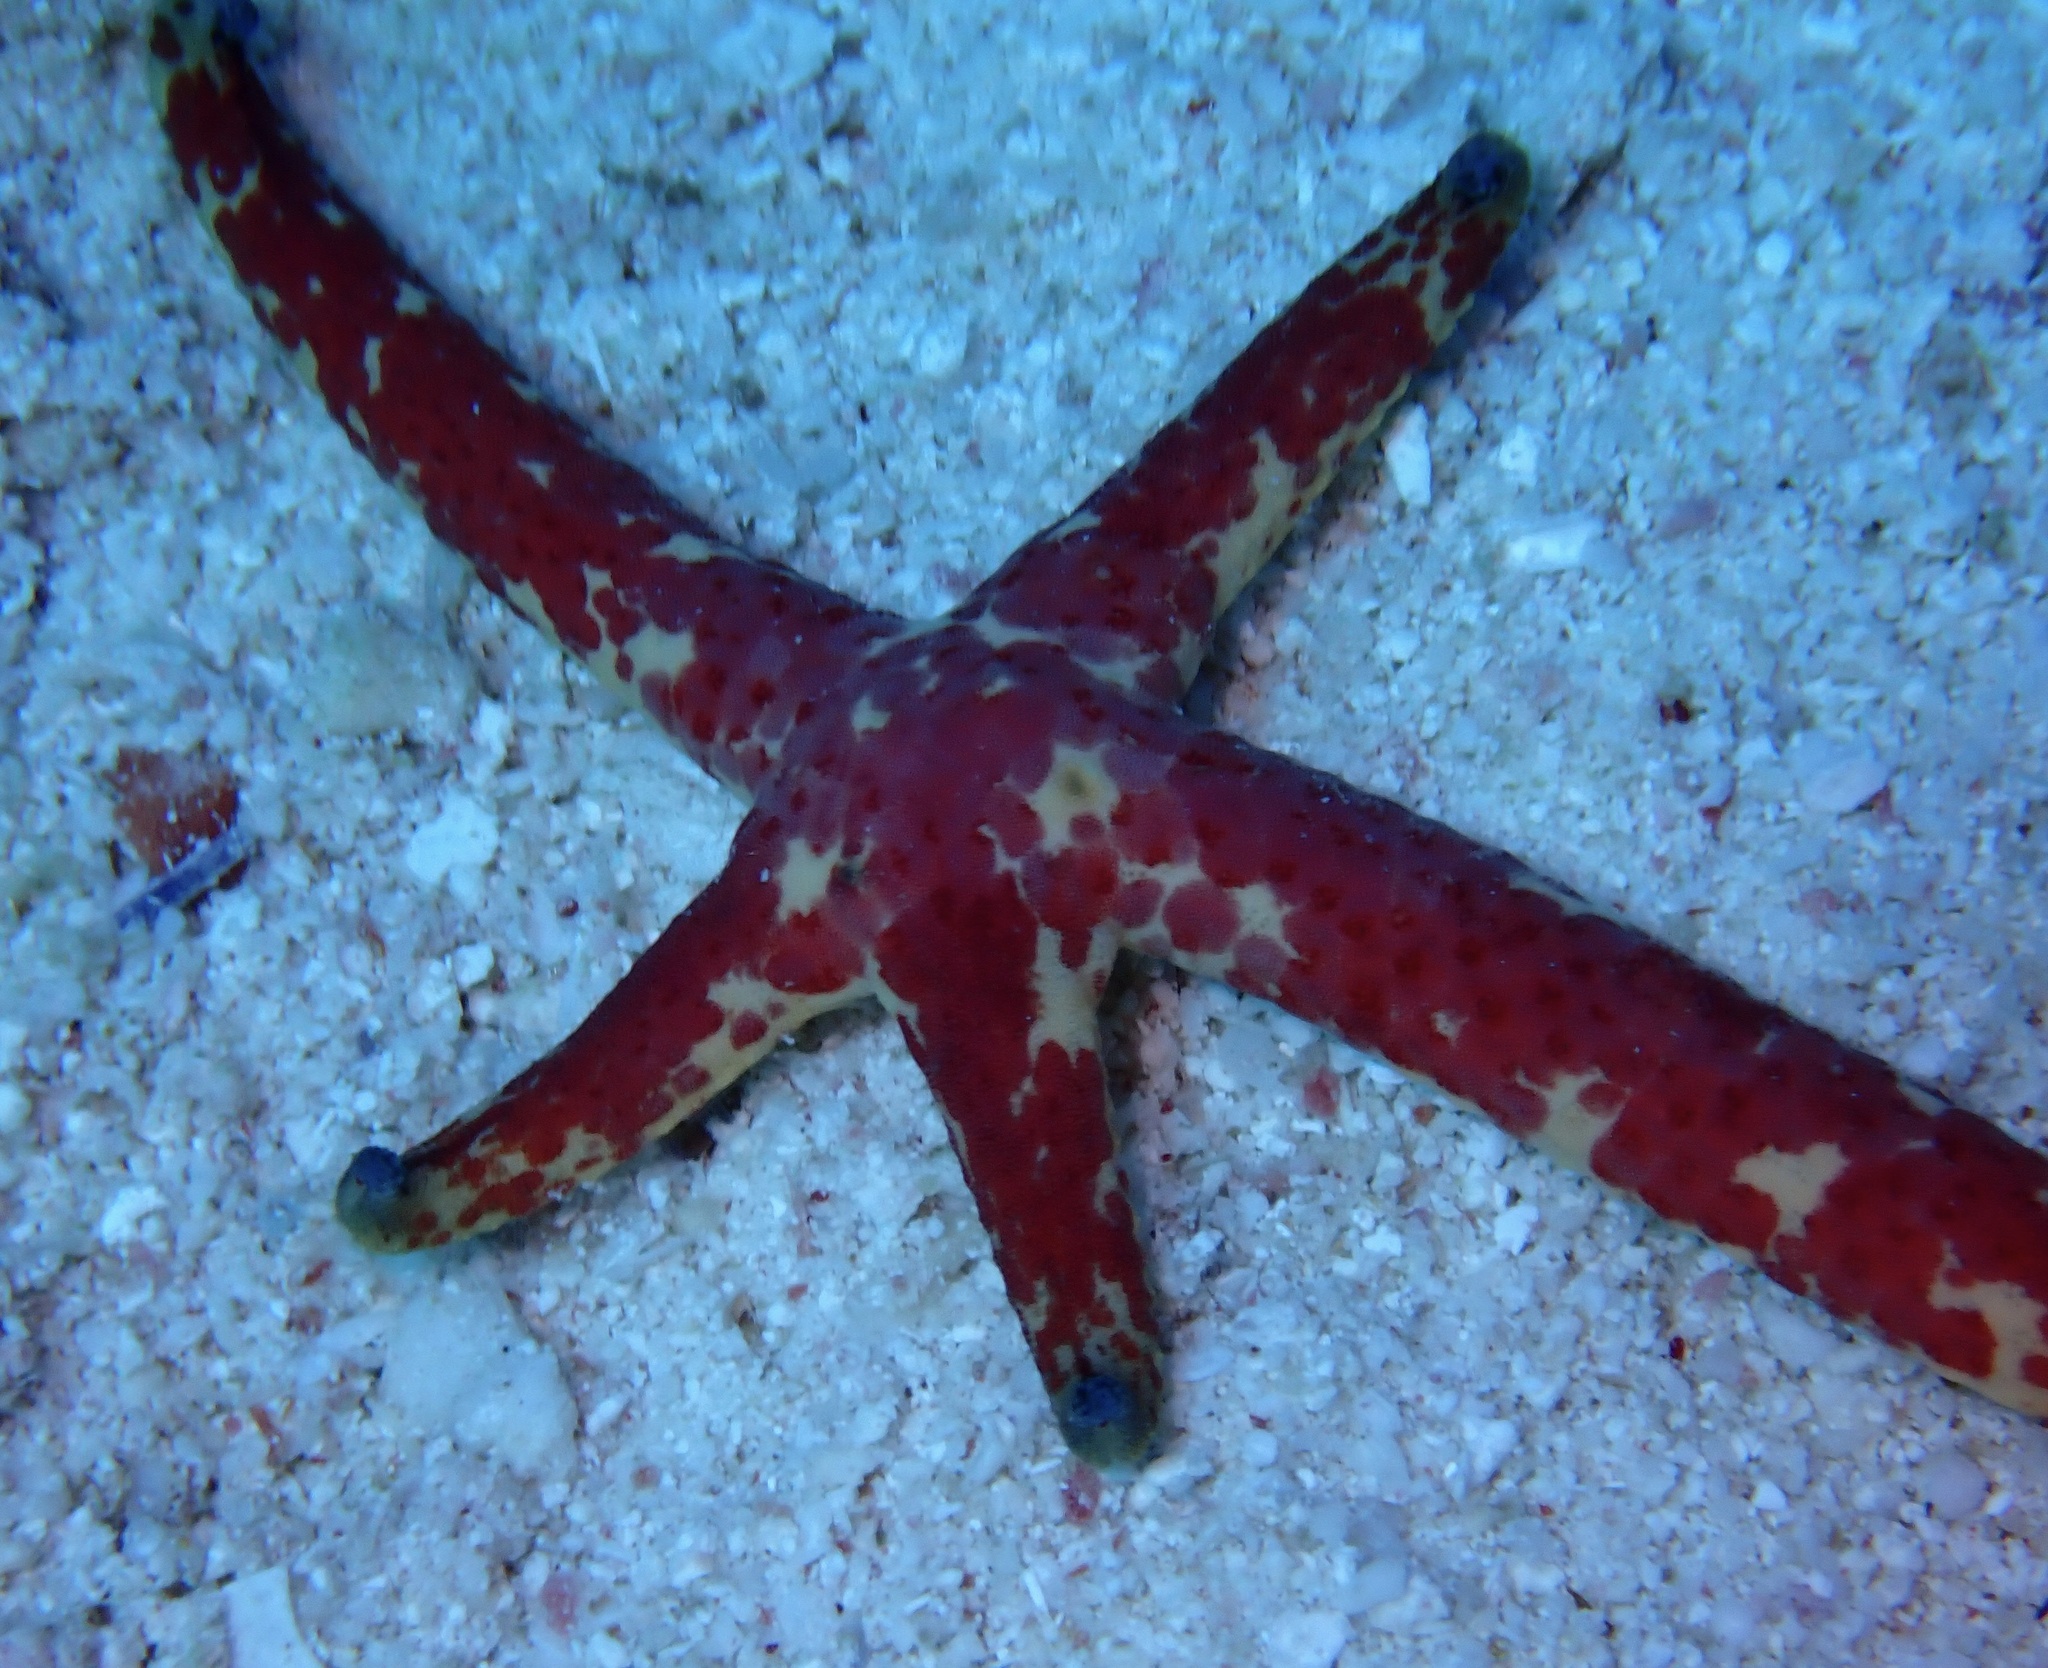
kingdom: Animalia
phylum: Echinodermata
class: Asteroidea
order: Valvatida
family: Ophidiasteridae
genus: Linckia
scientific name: Linckia multifora
